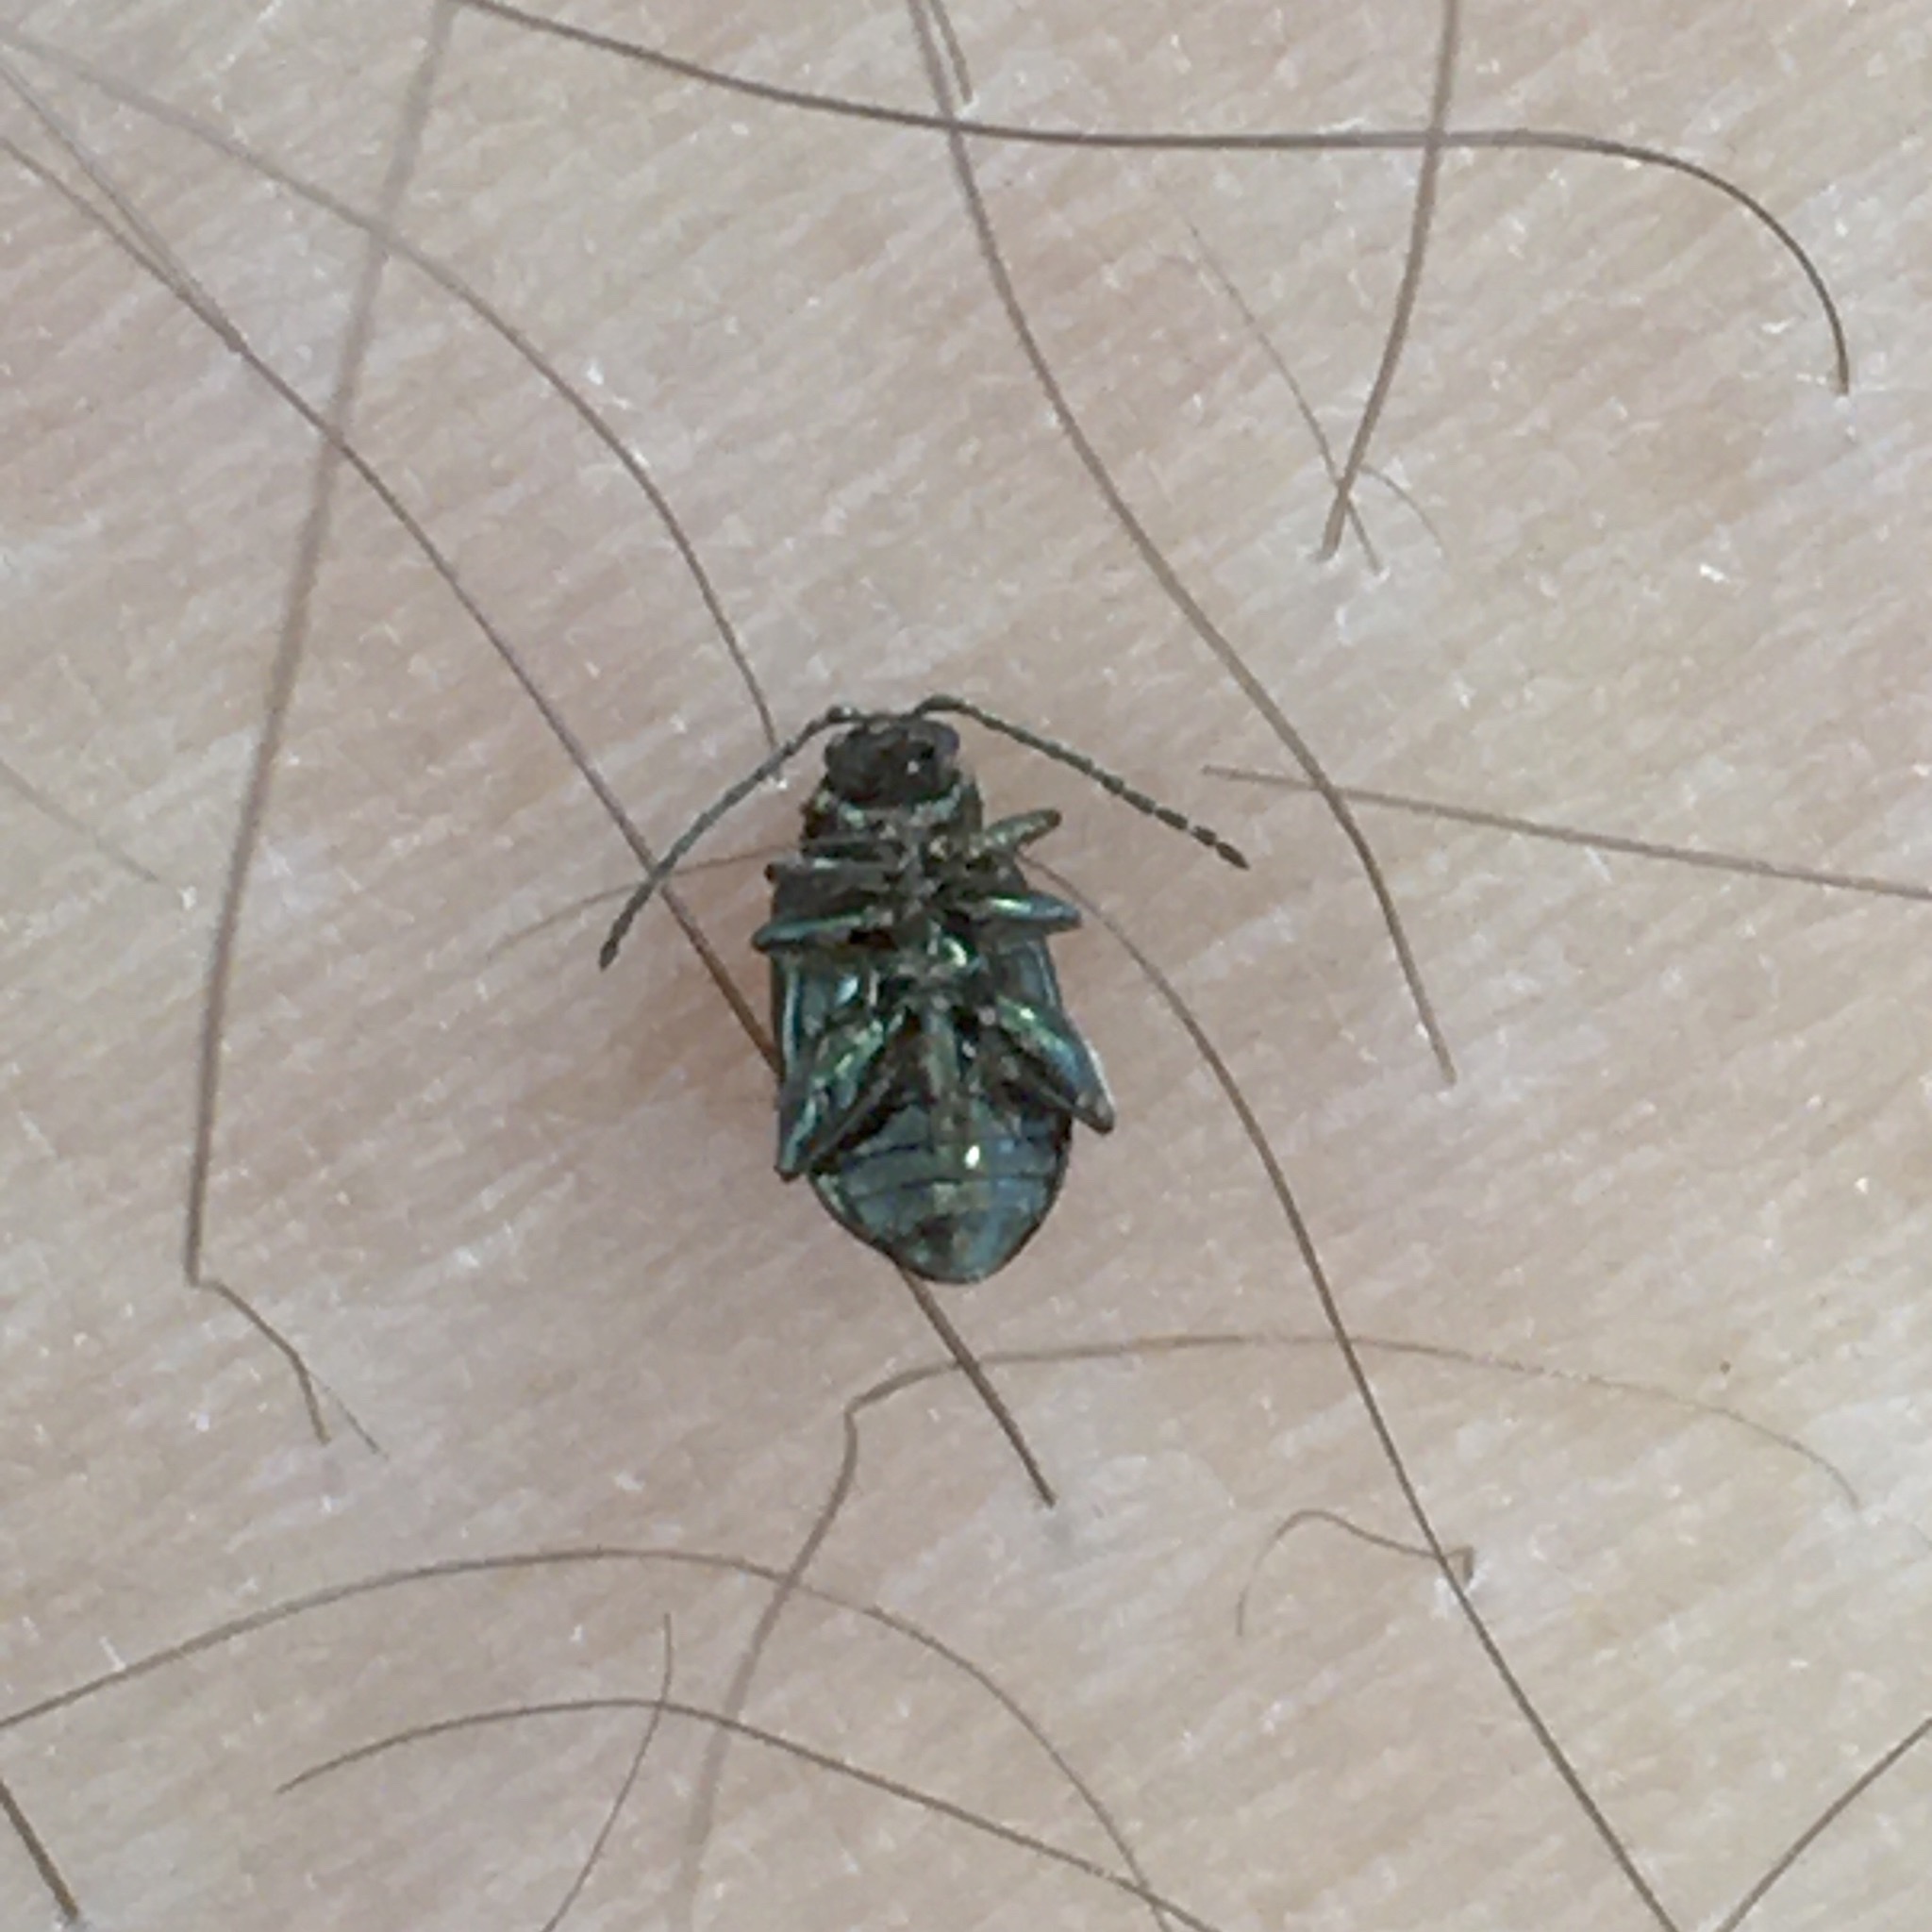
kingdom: Animalia
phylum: Arthropoda
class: Insecta
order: Coleoptera
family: Chrysomelidae
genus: Altica
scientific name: Altica
